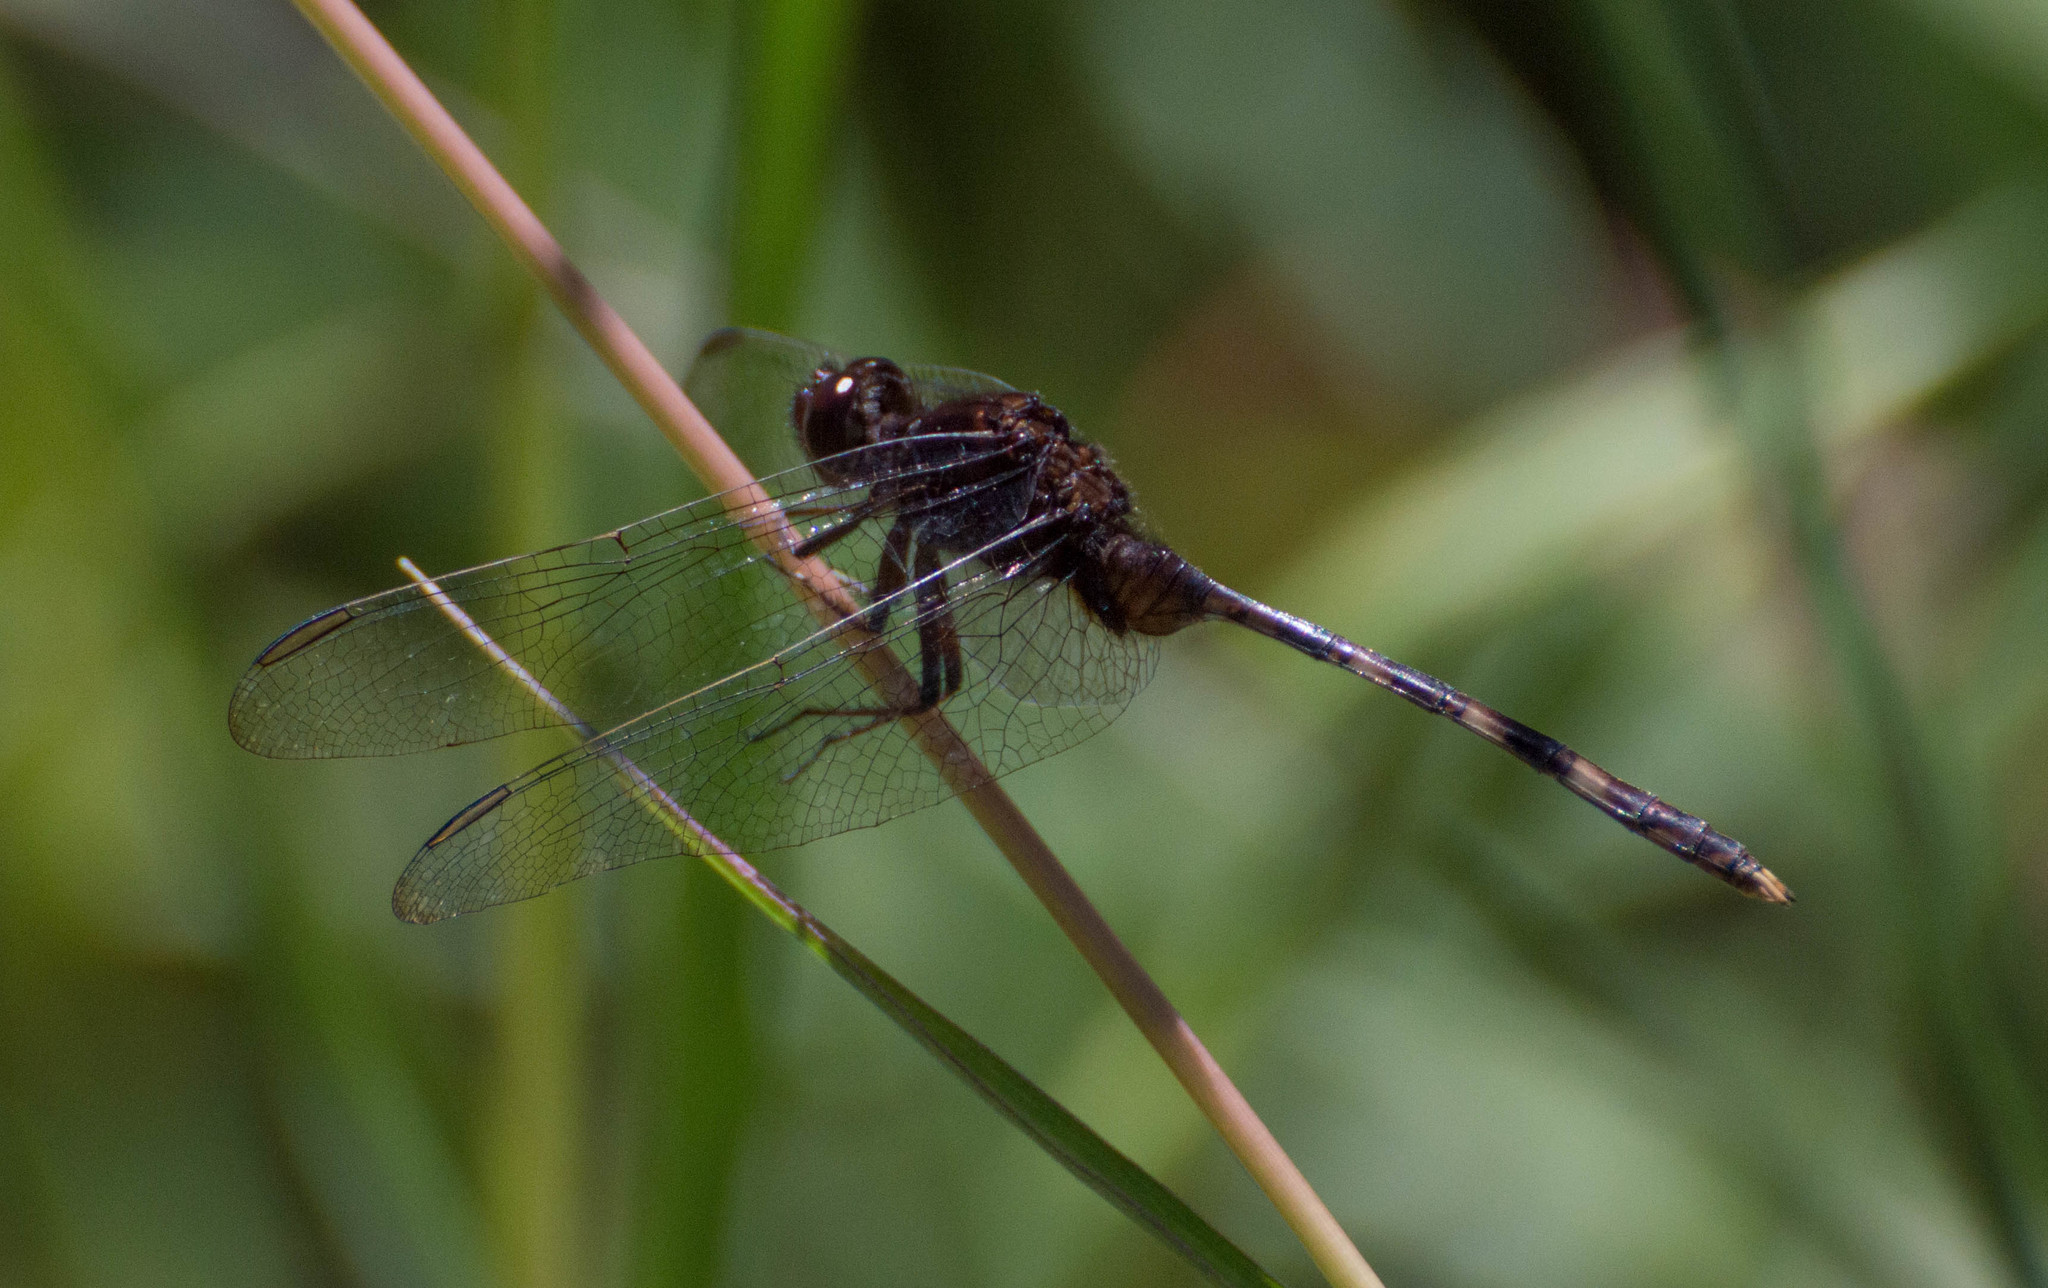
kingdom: Animalia
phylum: Arthropoda
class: Insecta
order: Odonata
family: Libellulidae
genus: Erythemis
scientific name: Erythemis plebeja
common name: Pin-tailed pondhawk
